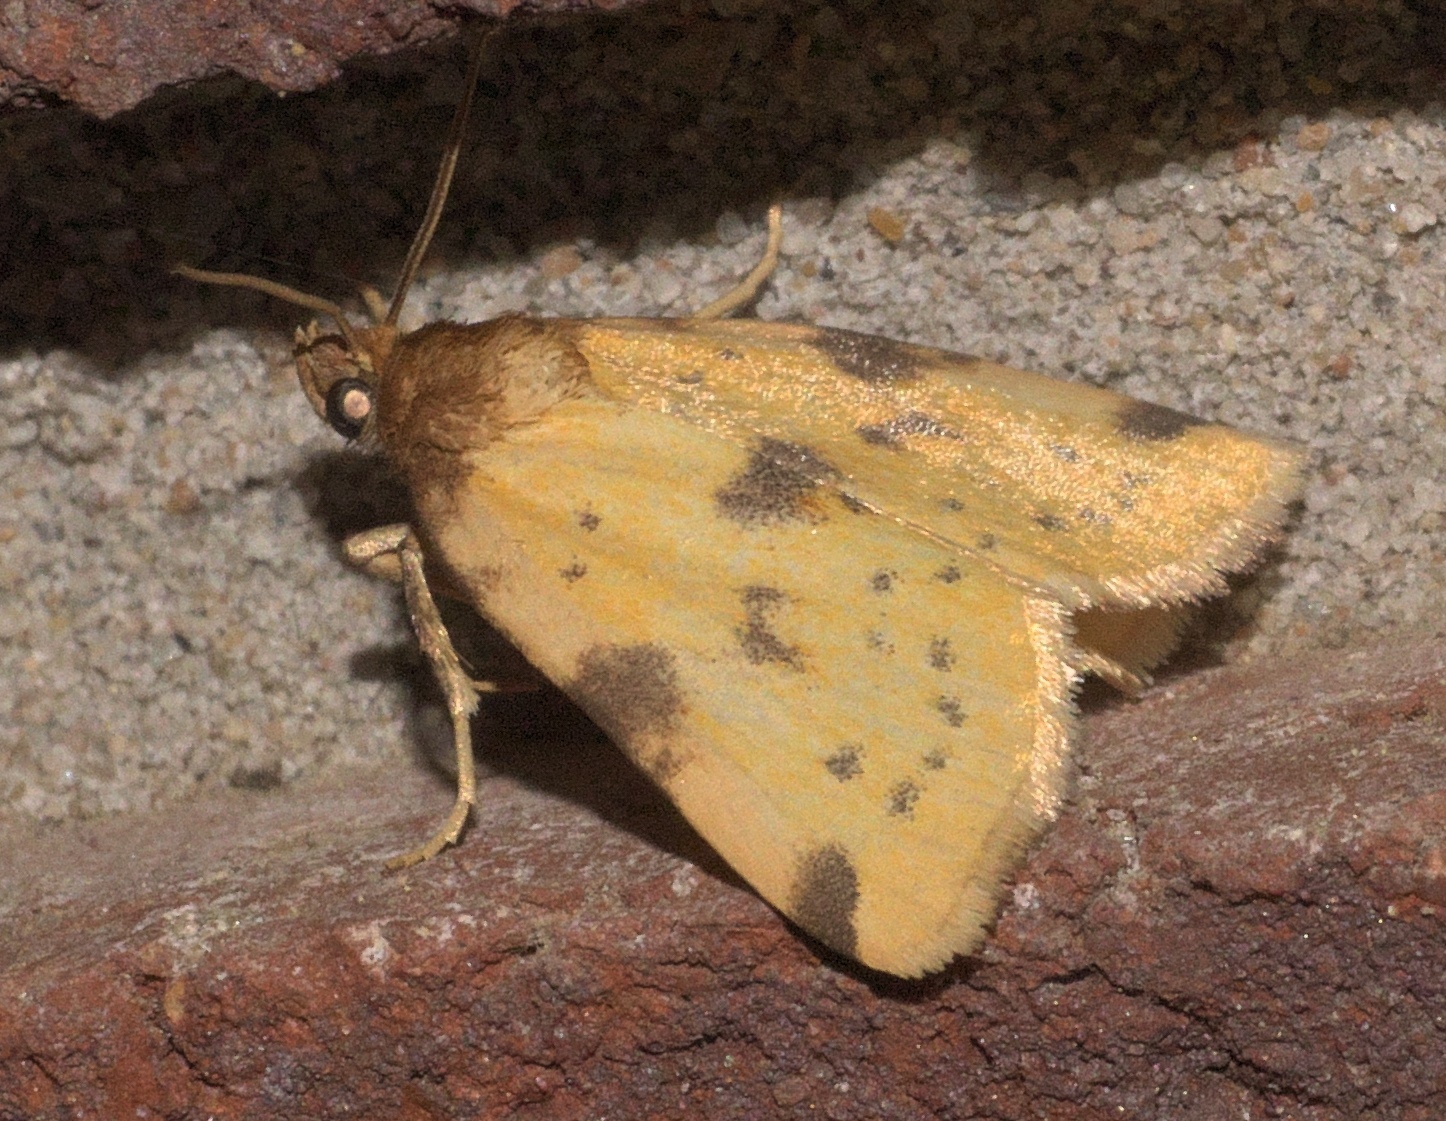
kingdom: Animalia
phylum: Arthropoda
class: Insecta
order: Lepidoptera
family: Noctuidae
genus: Azenia
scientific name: Azenia obtusa
